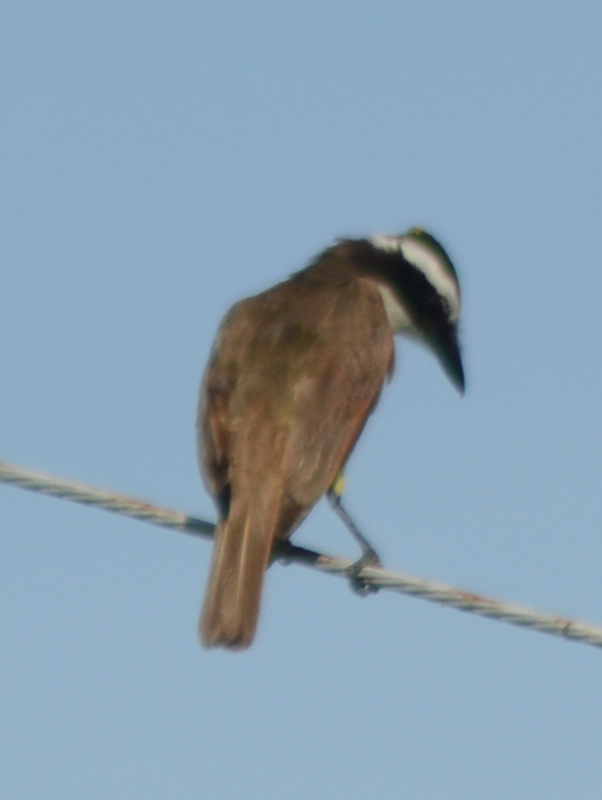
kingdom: Animalia
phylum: Chordata
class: Aves
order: Passeriformes
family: Tyrannidae
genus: Pitangus
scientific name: Pitangus sulphuratus
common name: Great kiskadee
